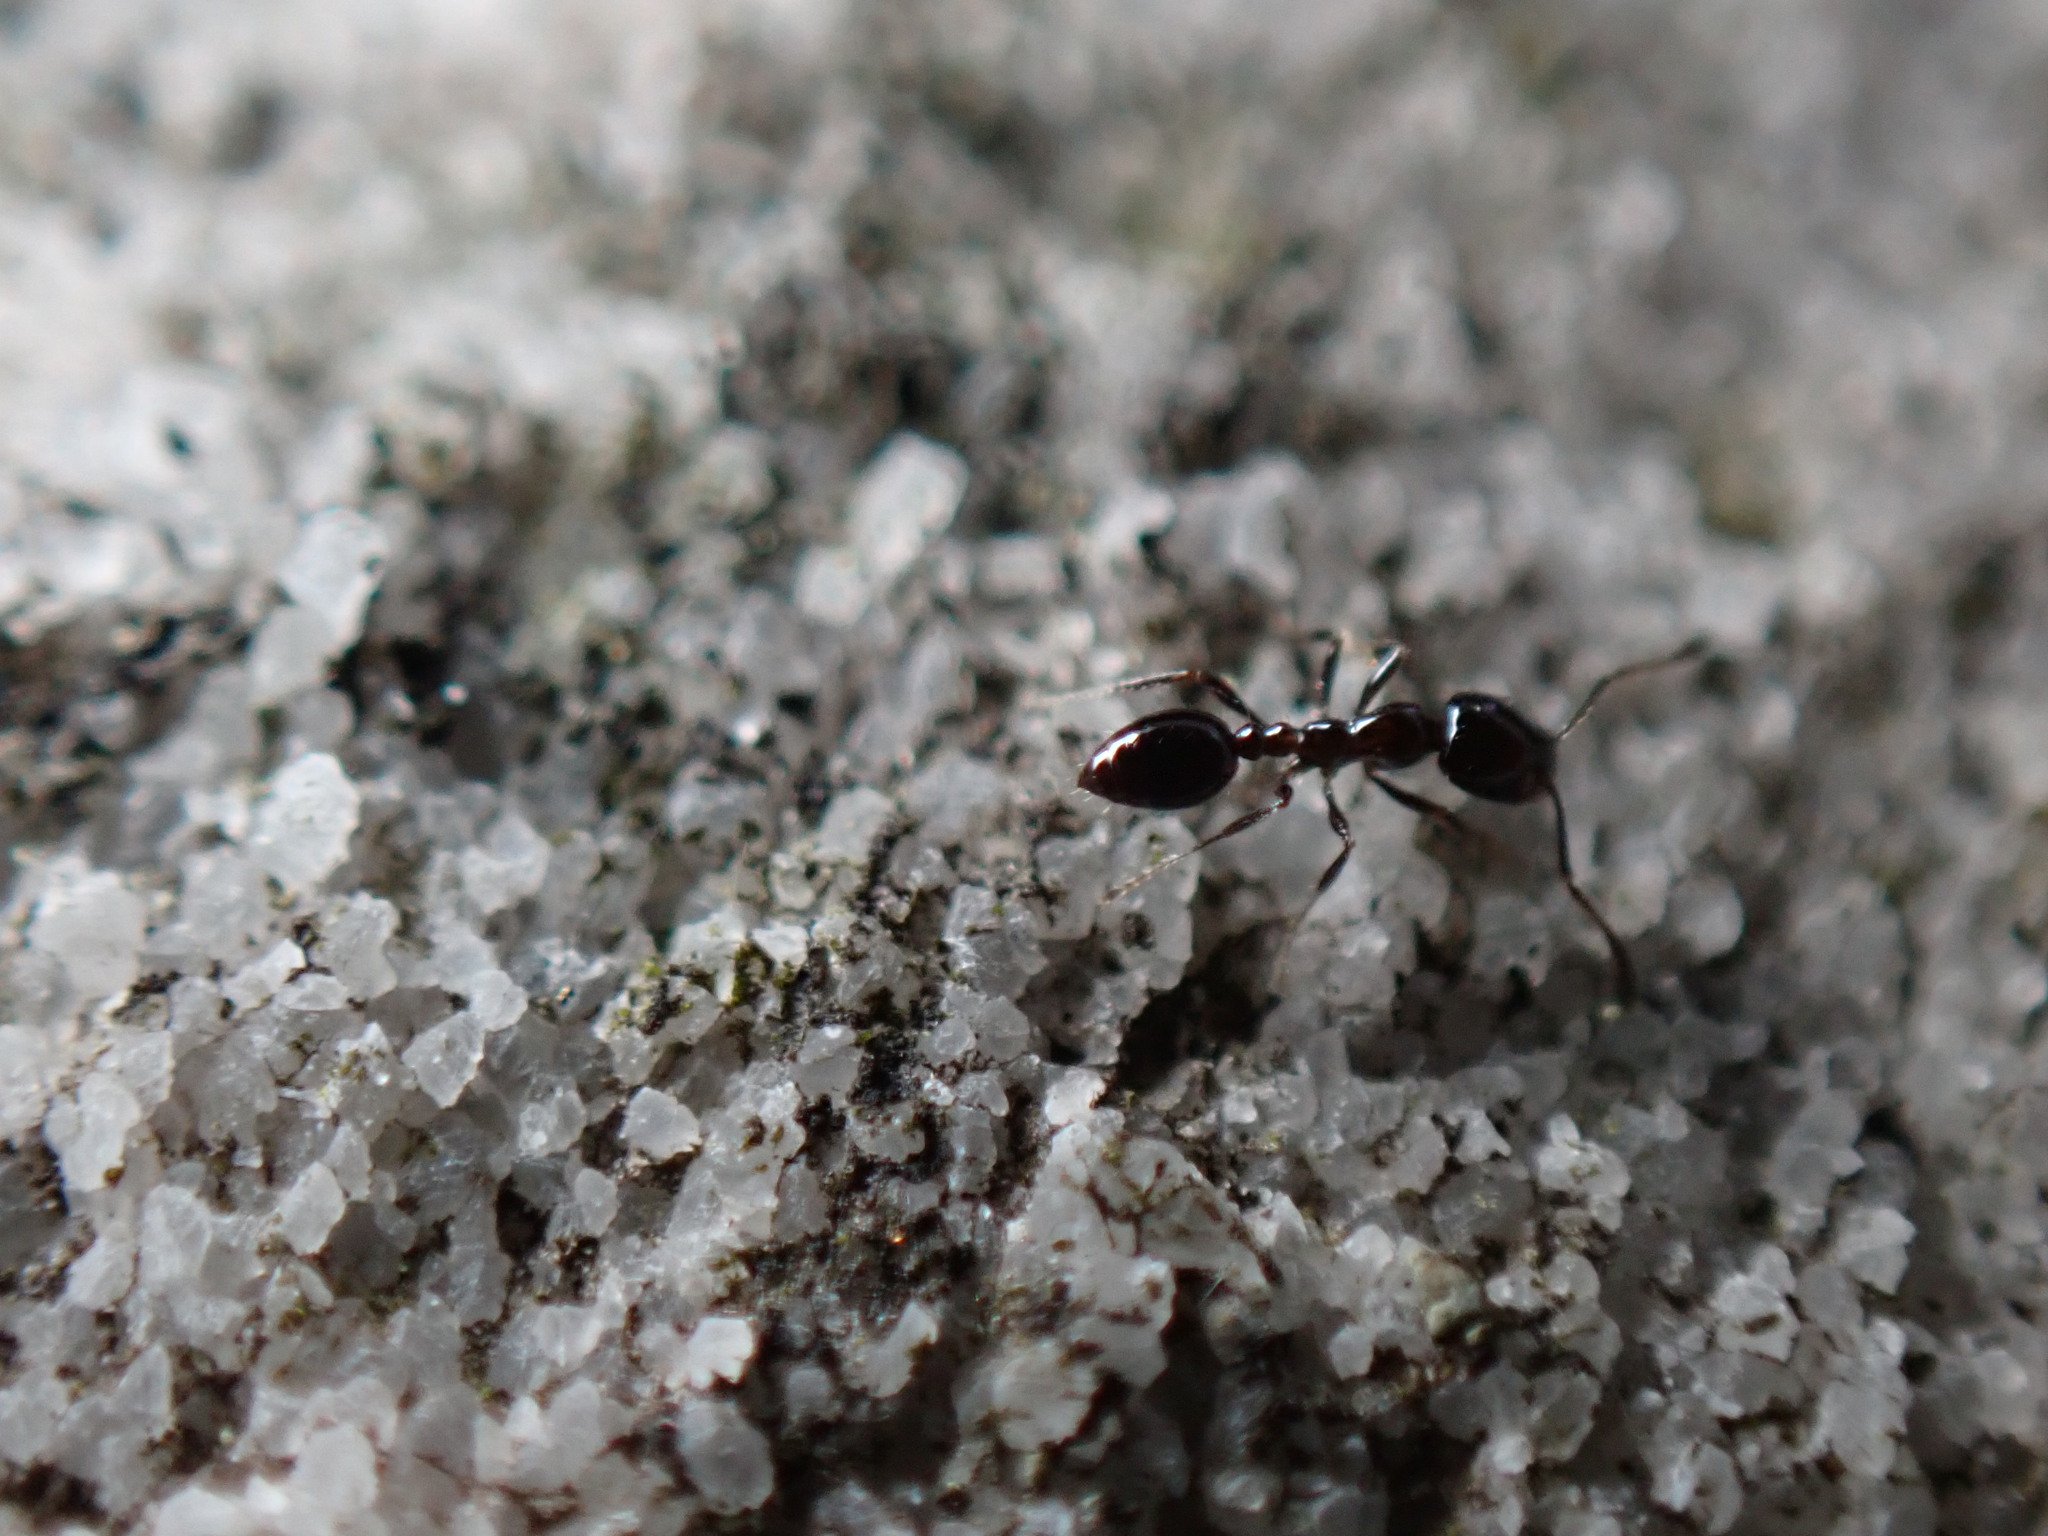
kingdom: Animalia
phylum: Arthropoda
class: Insecta
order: Hymenoptera
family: Formicidae
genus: Monomorium
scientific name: Monomorium minimum
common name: Little black ant
